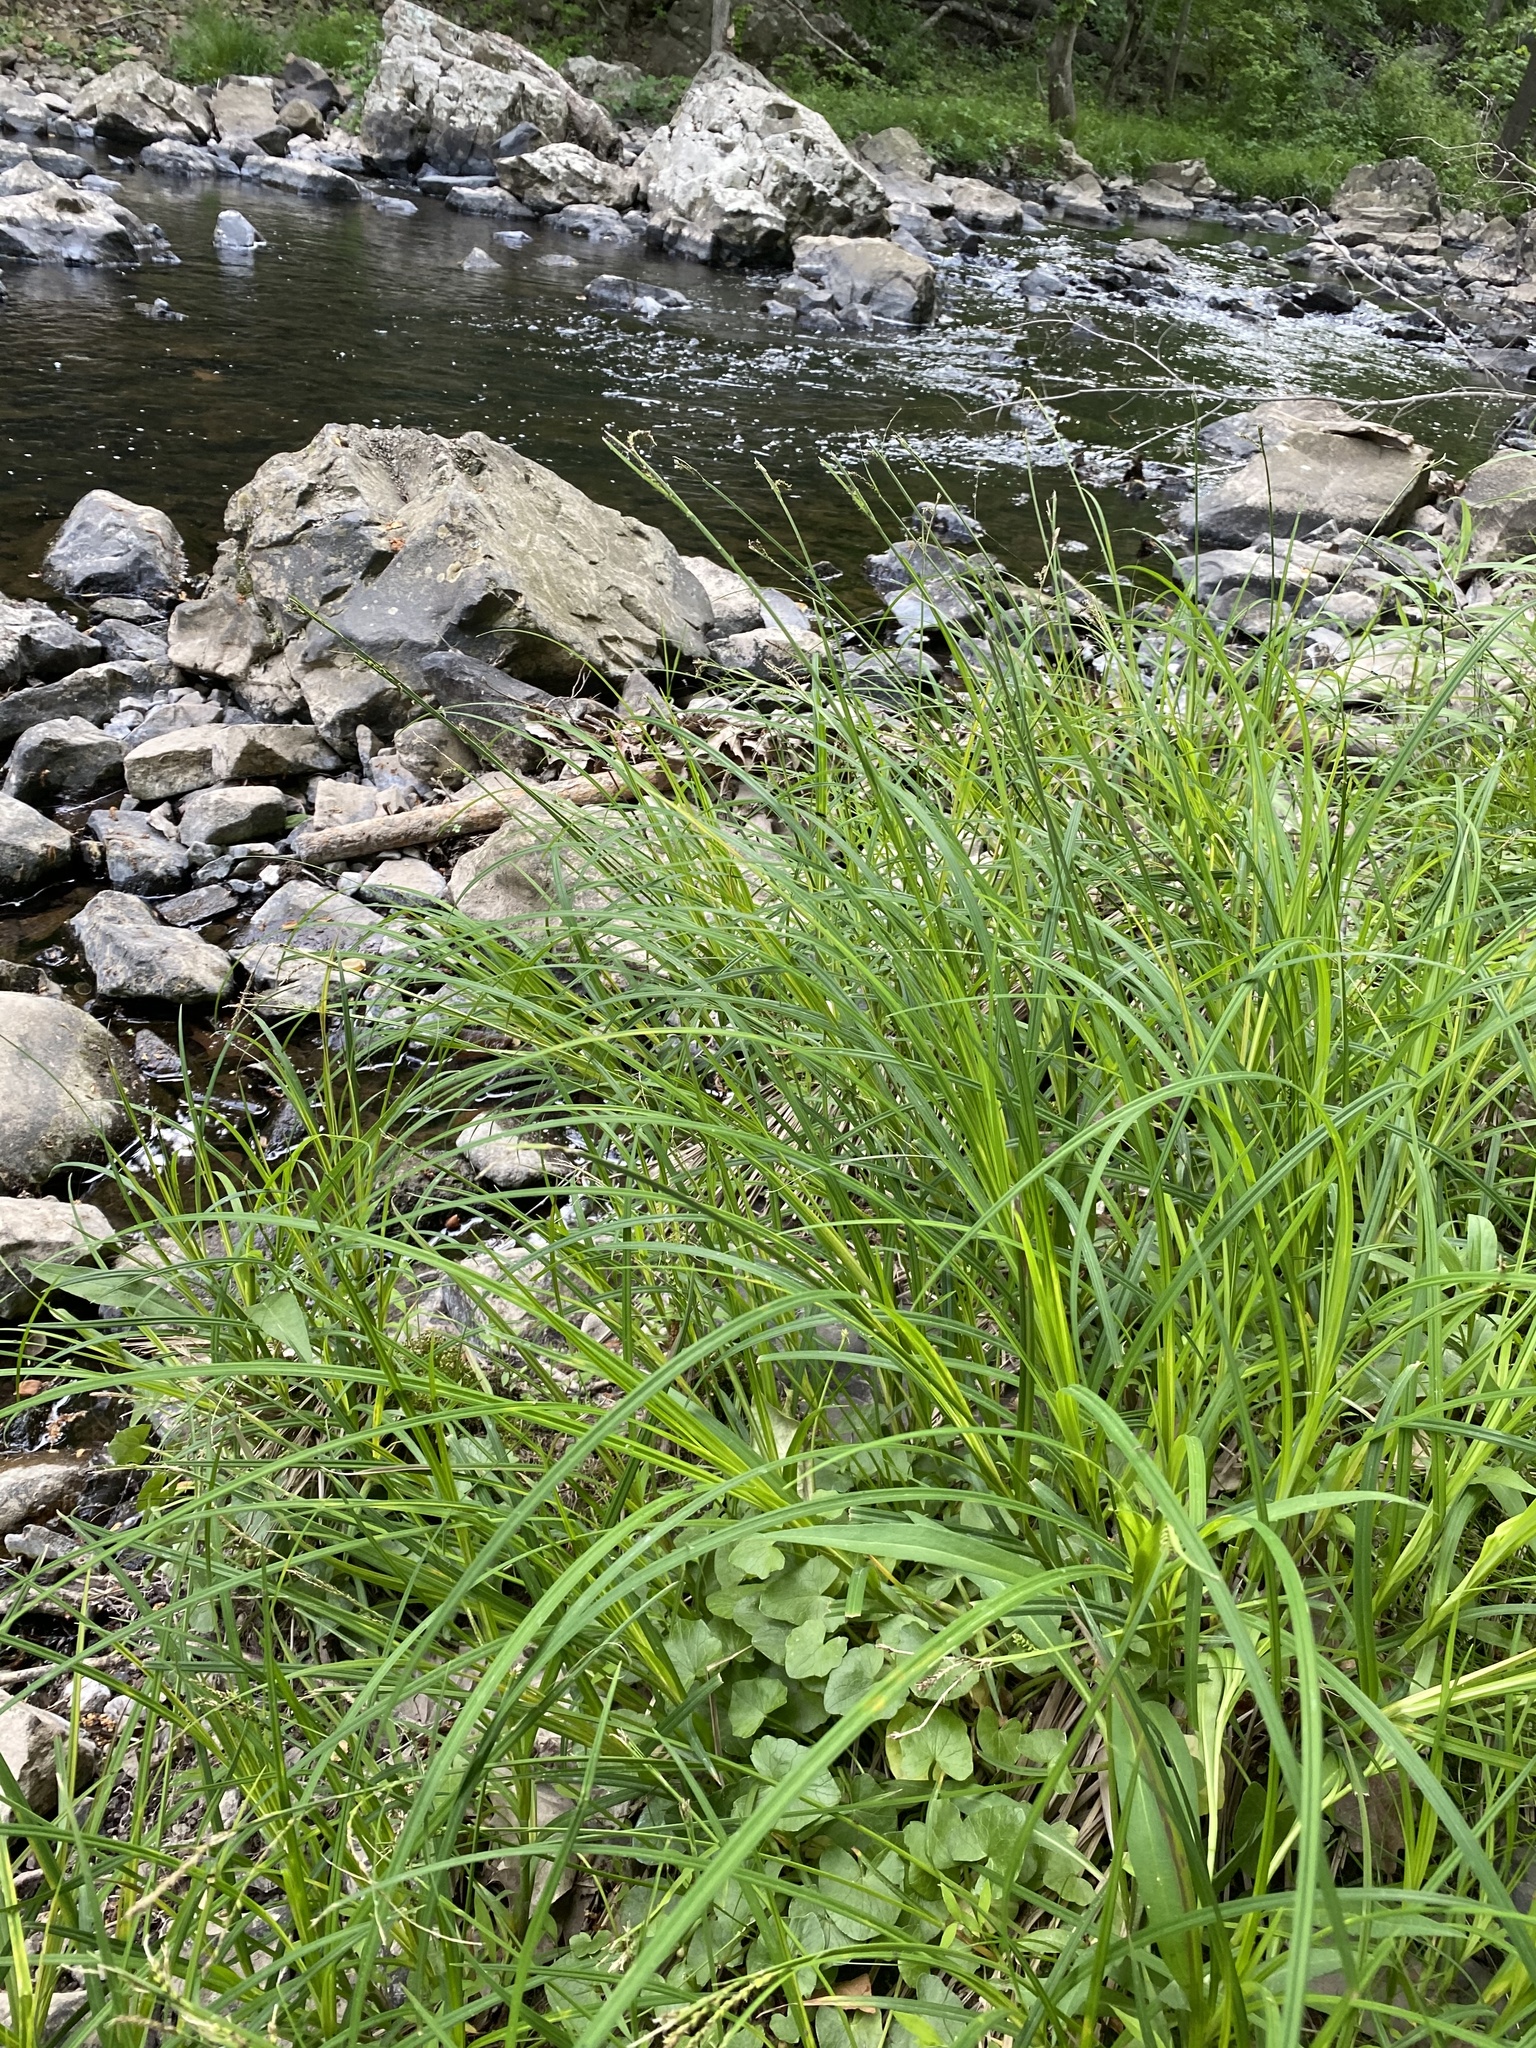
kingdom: Plantae
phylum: Tracheophyta
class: Liliopsida
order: Poales
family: Cyperaceae
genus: Carex
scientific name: Carex torta
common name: Twisted sedge
